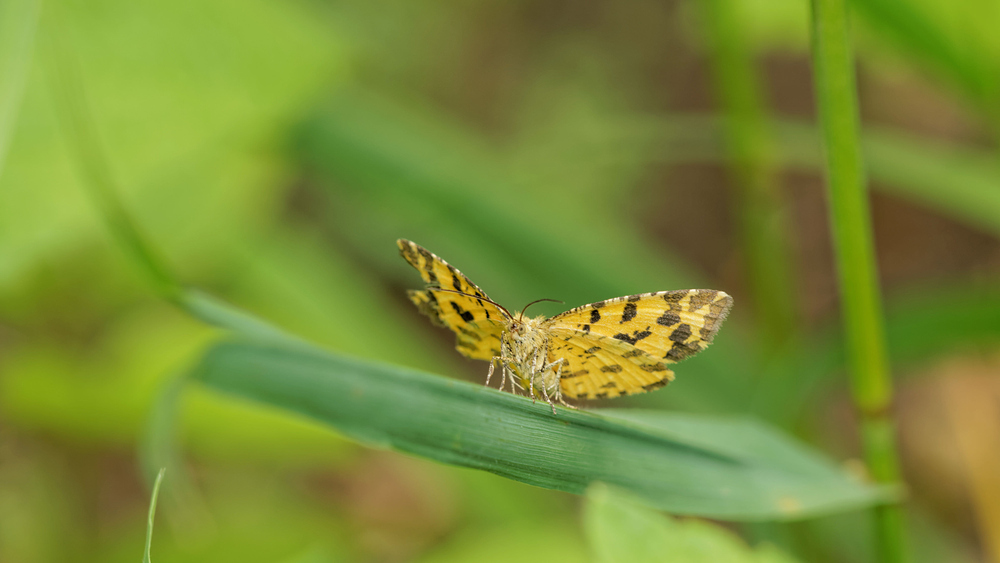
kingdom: Animalia
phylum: Arthropoda
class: Insecta
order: Lepidoptera
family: Geometridae
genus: Pseudopanthera
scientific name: Pseudopanthera macularia
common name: Speckled yellow
